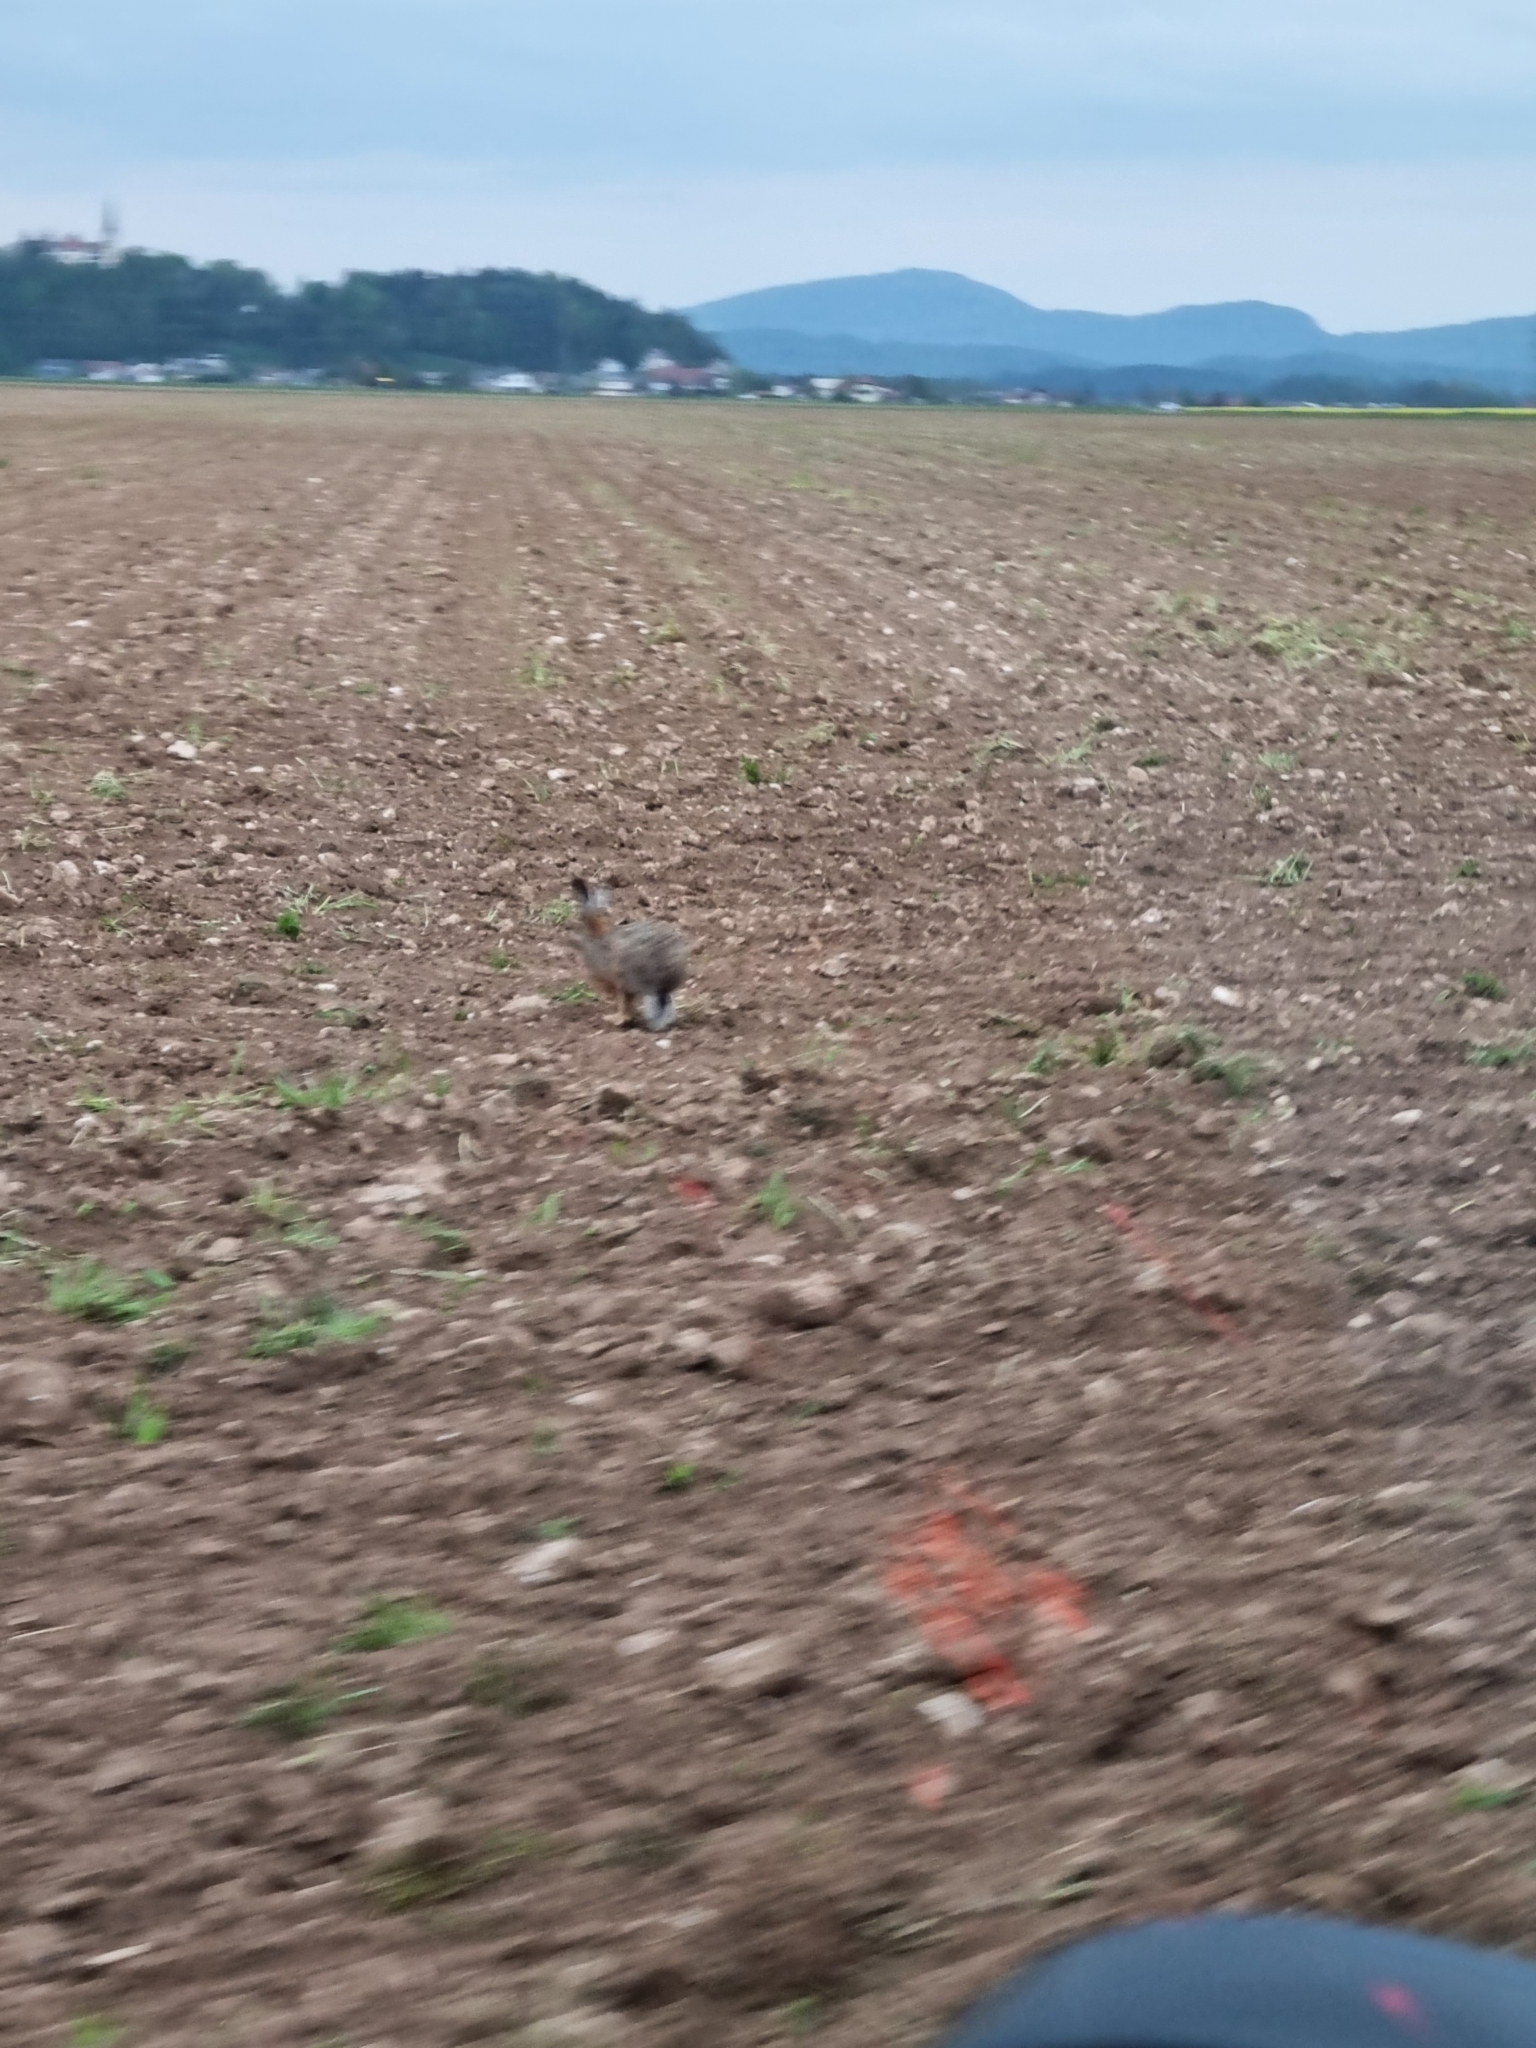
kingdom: Animalia
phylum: Chordata
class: Mammalia
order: Lagomorpha
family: Leporidae
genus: Lepus
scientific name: Lepus europaeus
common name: European hare
